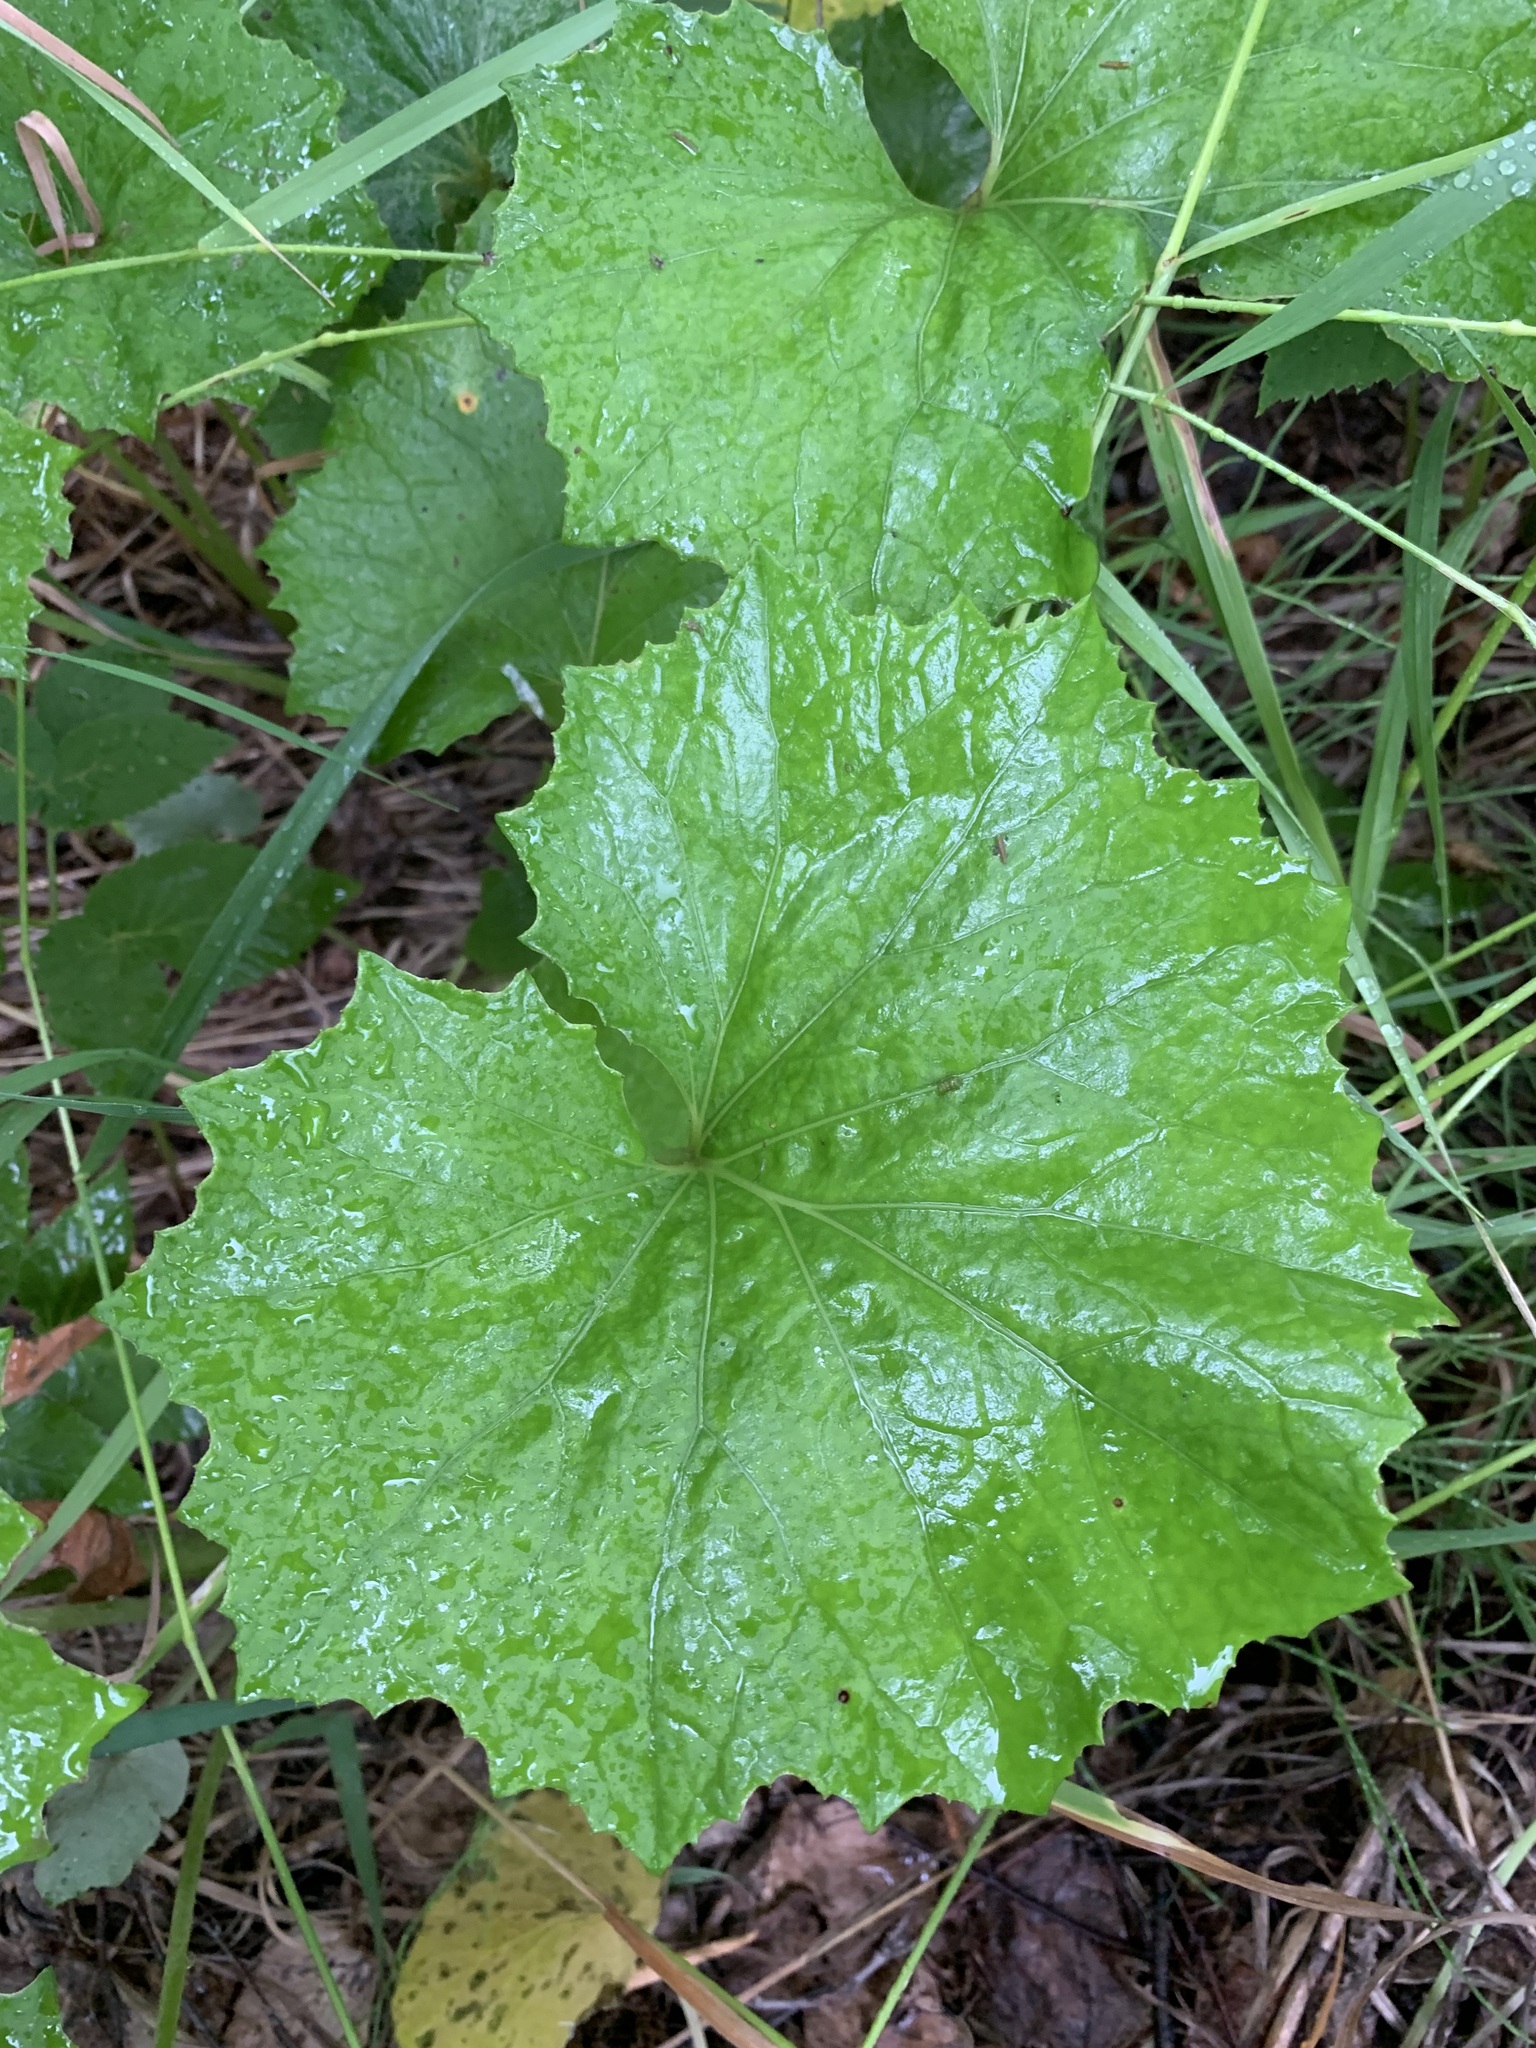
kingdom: Plantae
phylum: Tracheophyta
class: Magnoliopsida
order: Asterales
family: Asteraceae
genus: Tussilago
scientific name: Tussilago farfara
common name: Coltsfoot
